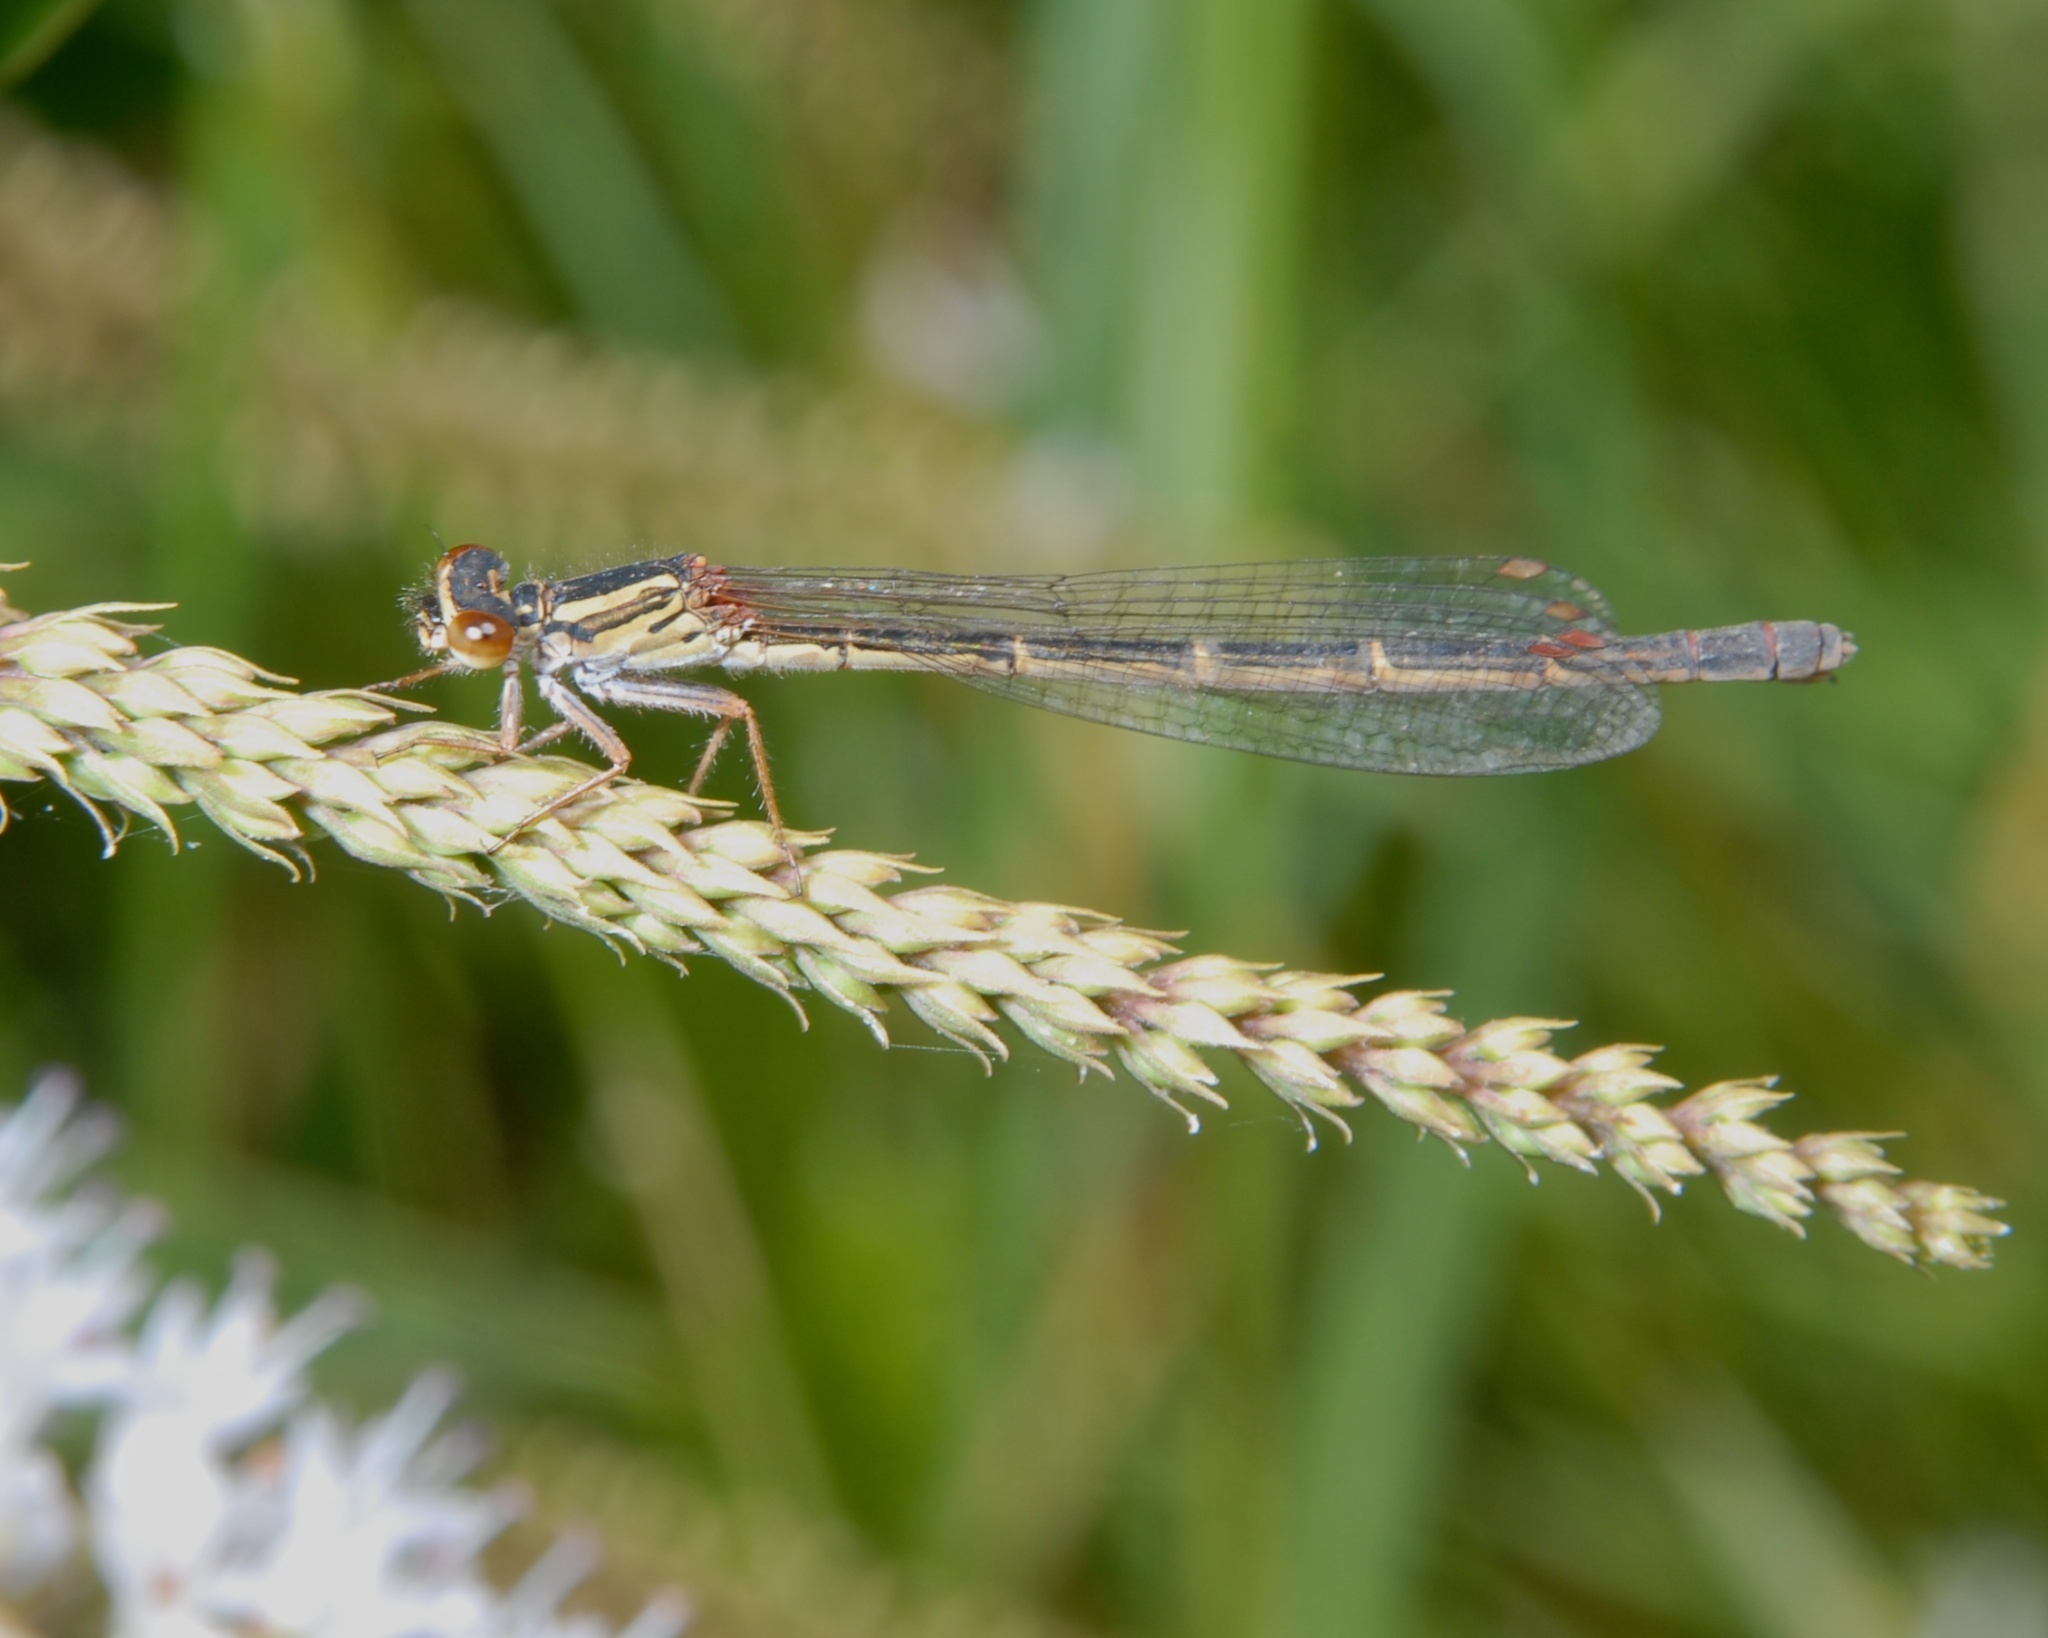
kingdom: Animalia
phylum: Arthropoda
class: Insecta
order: Odonata
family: Coenagrionidae
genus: Xanthocnemis
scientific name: Xanthocnemis zealandica
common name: Common redcoat damselfly
